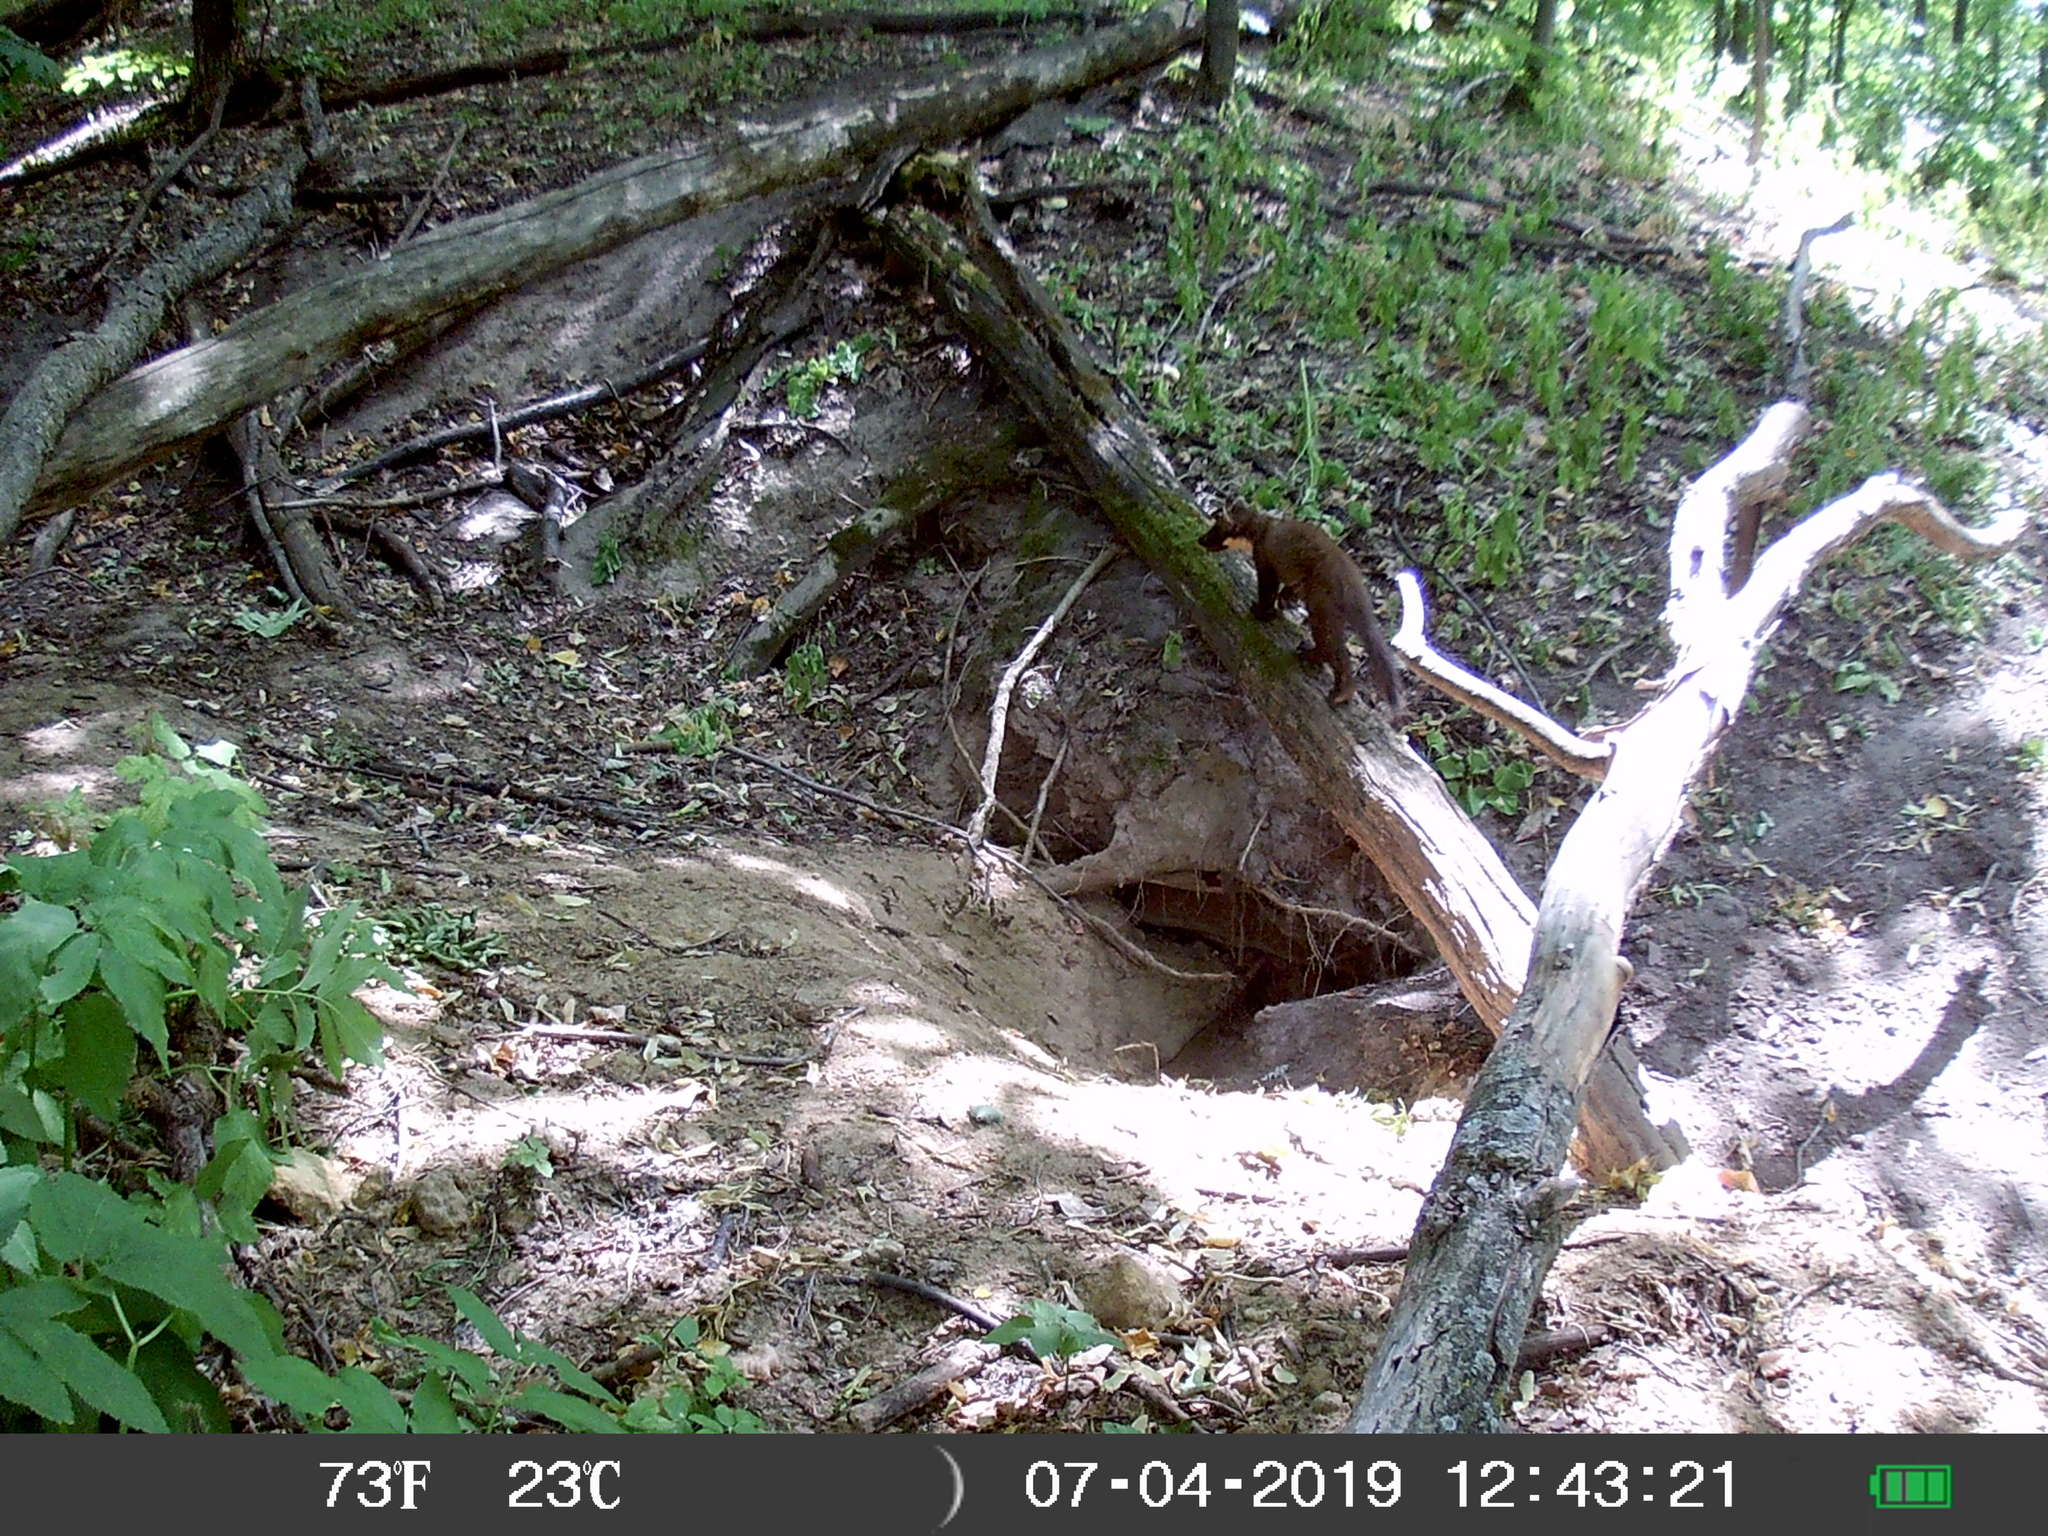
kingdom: Animalia
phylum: Chordata
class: Mammalia
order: Carnivora
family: Mustelidae
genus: Martes
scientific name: Martes martes
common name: European pine marten
